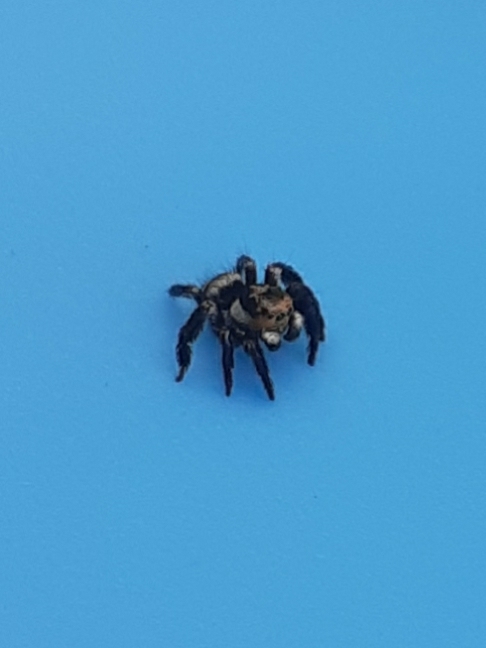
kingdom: Animalia
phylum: Arthropoda
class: Arachnida
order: Araneae
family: Salticidae
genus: Corythalia
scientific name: Corythalia argentinensis
